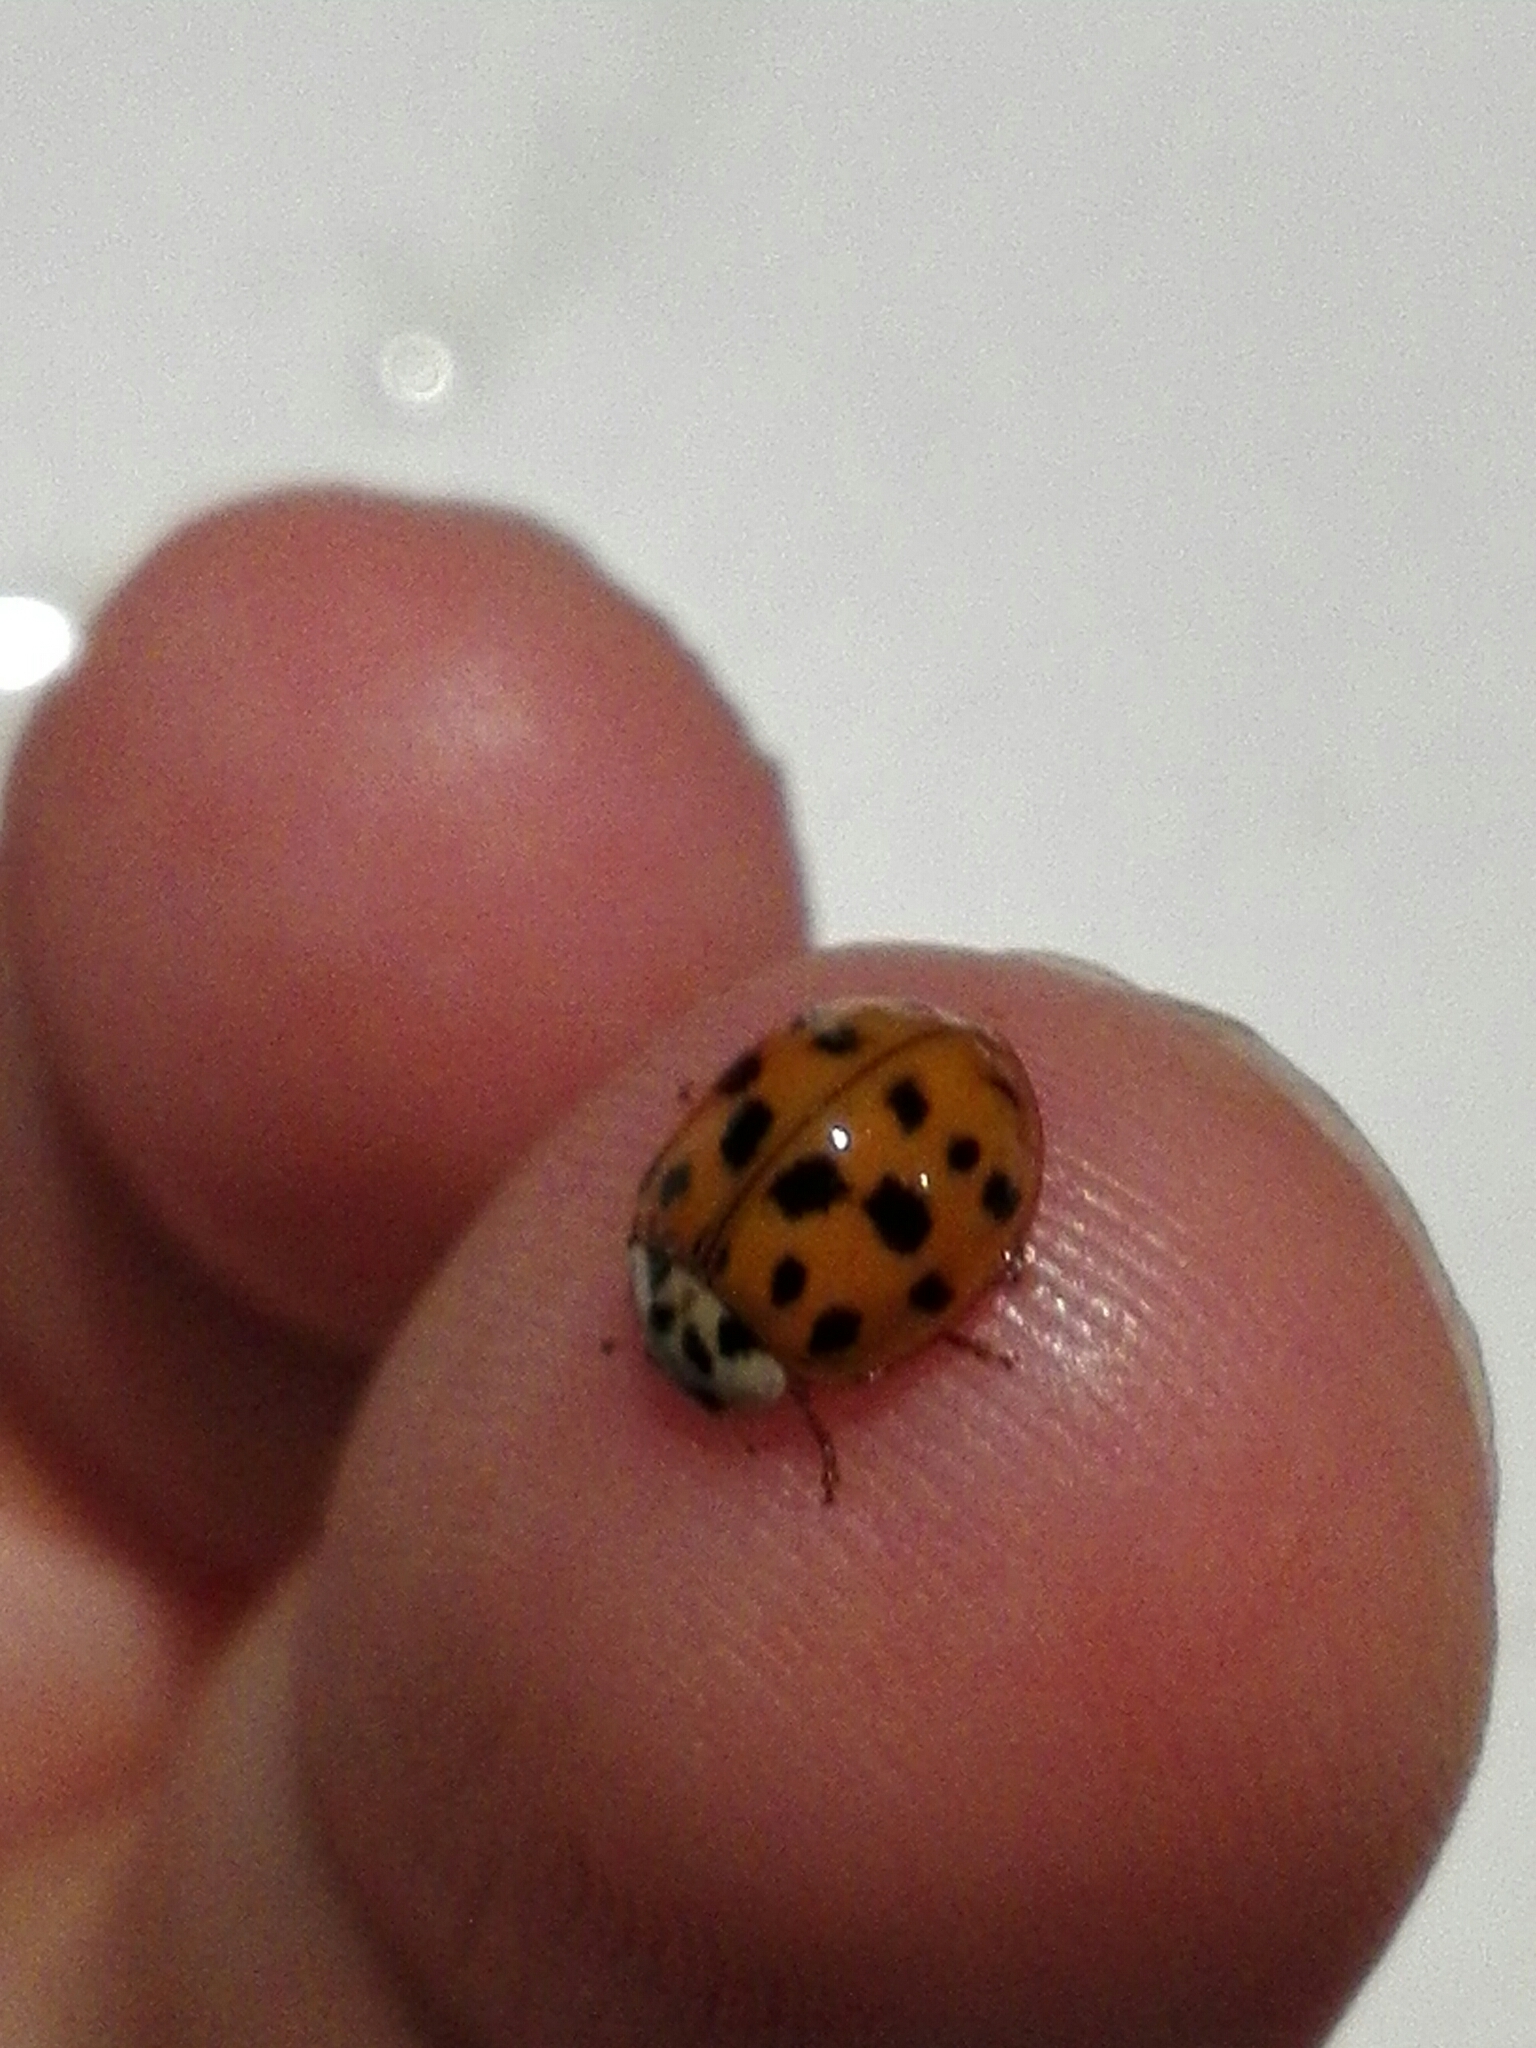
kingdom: Animalia
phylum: Arthropoda
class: Insecta
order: Coleoptera
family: Coccinellidae
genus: Harmonia
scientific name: Harmonia axyridis
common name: Harlequin ladybird
